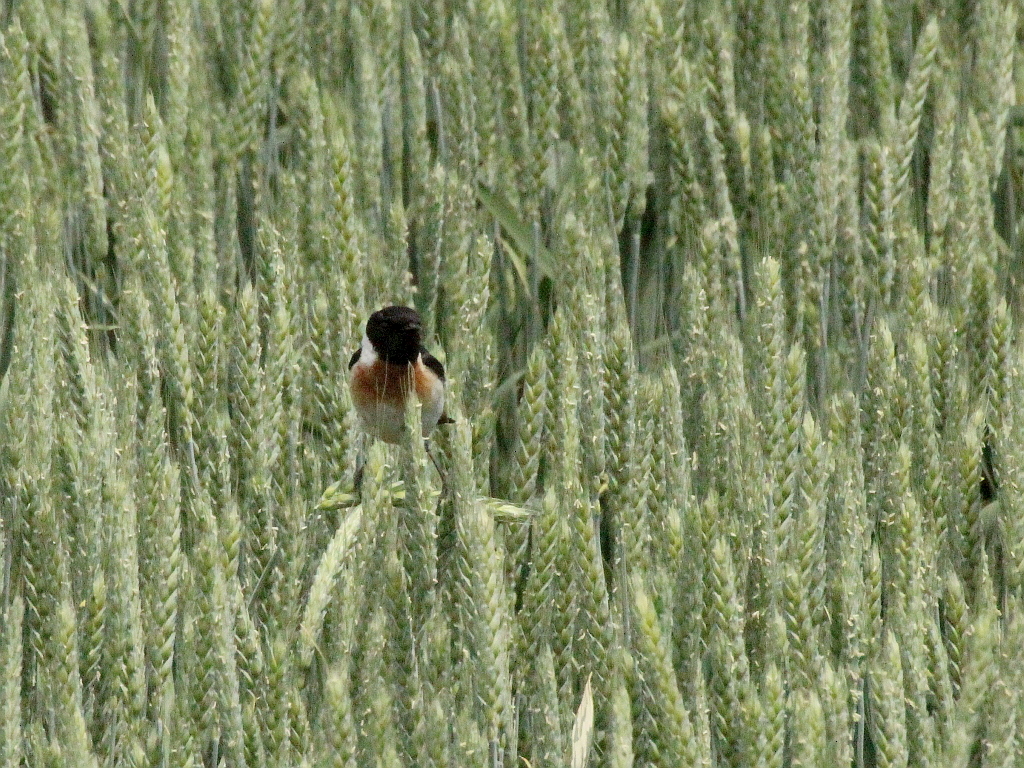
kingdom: Animalia
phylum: Chordata
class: Aves
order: Passeriformes
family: Muscicapidae
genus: Saxicola
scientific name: Saxicola maurus
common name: Siberian stonechat
